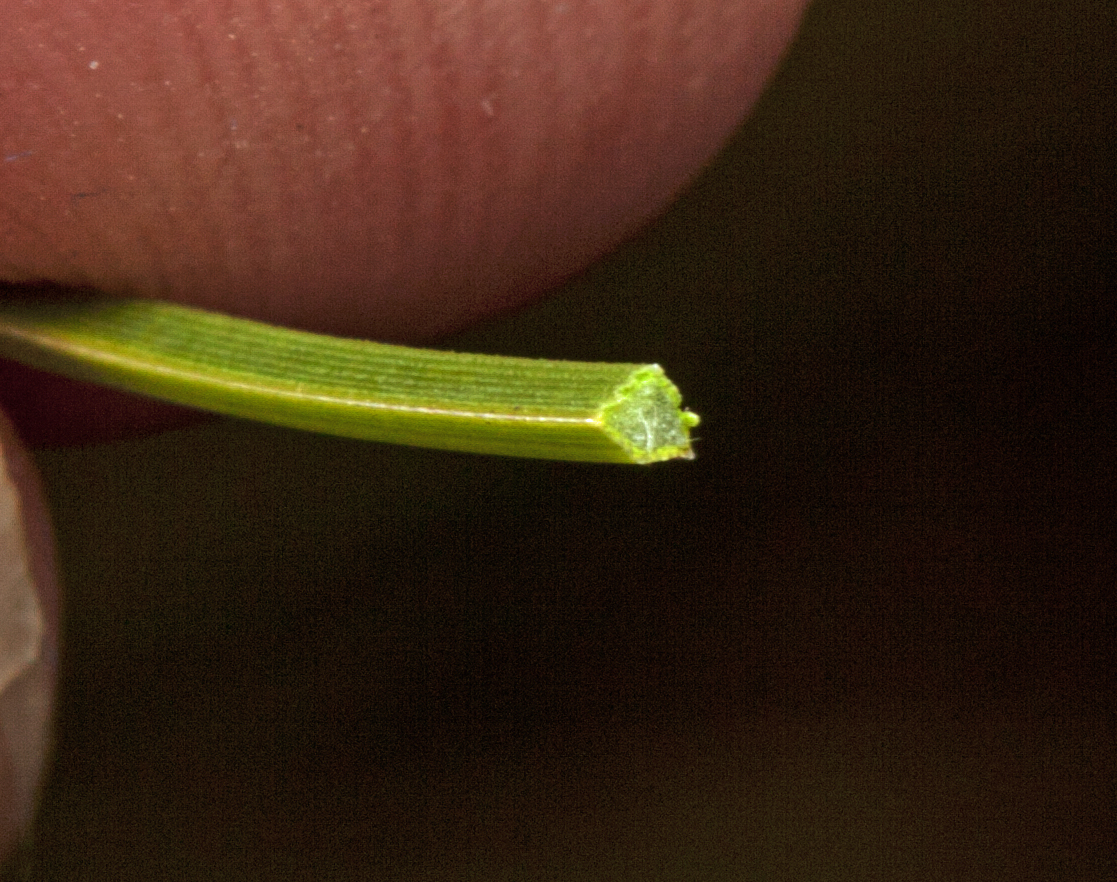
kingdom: Plantae
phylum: Tracheophyta
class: Liliopsida
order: Asparagales
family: Asphodelaceae
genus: Xanthorrhoea
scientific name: Xanthorrhoea johnsonii
